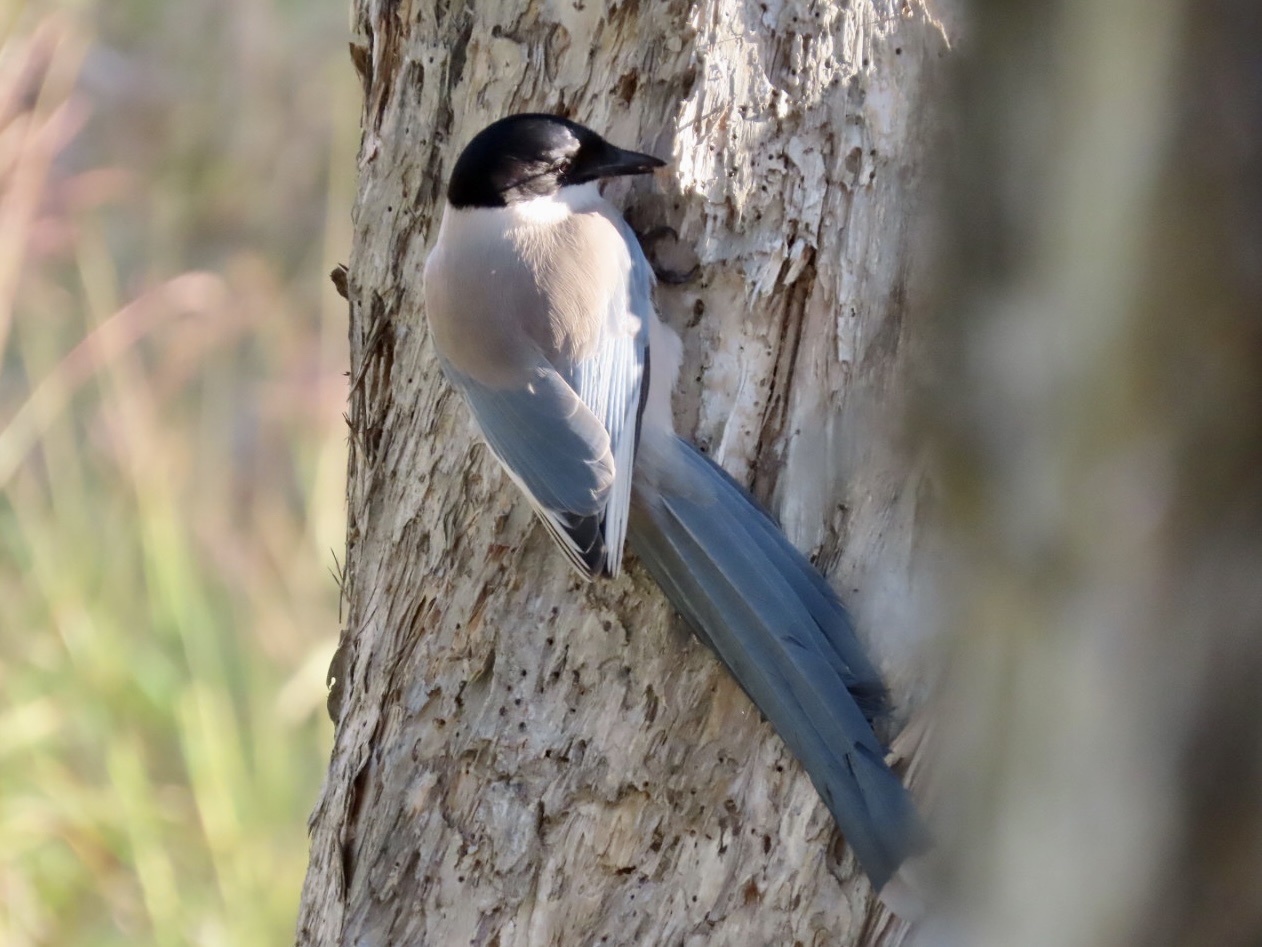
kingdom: Animalia
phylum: Chordata
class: Aves
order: Passeriformes
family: Corvidae
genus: Cyanopica
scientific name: Cyanopica cyanus
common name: Azure-winged magpie
